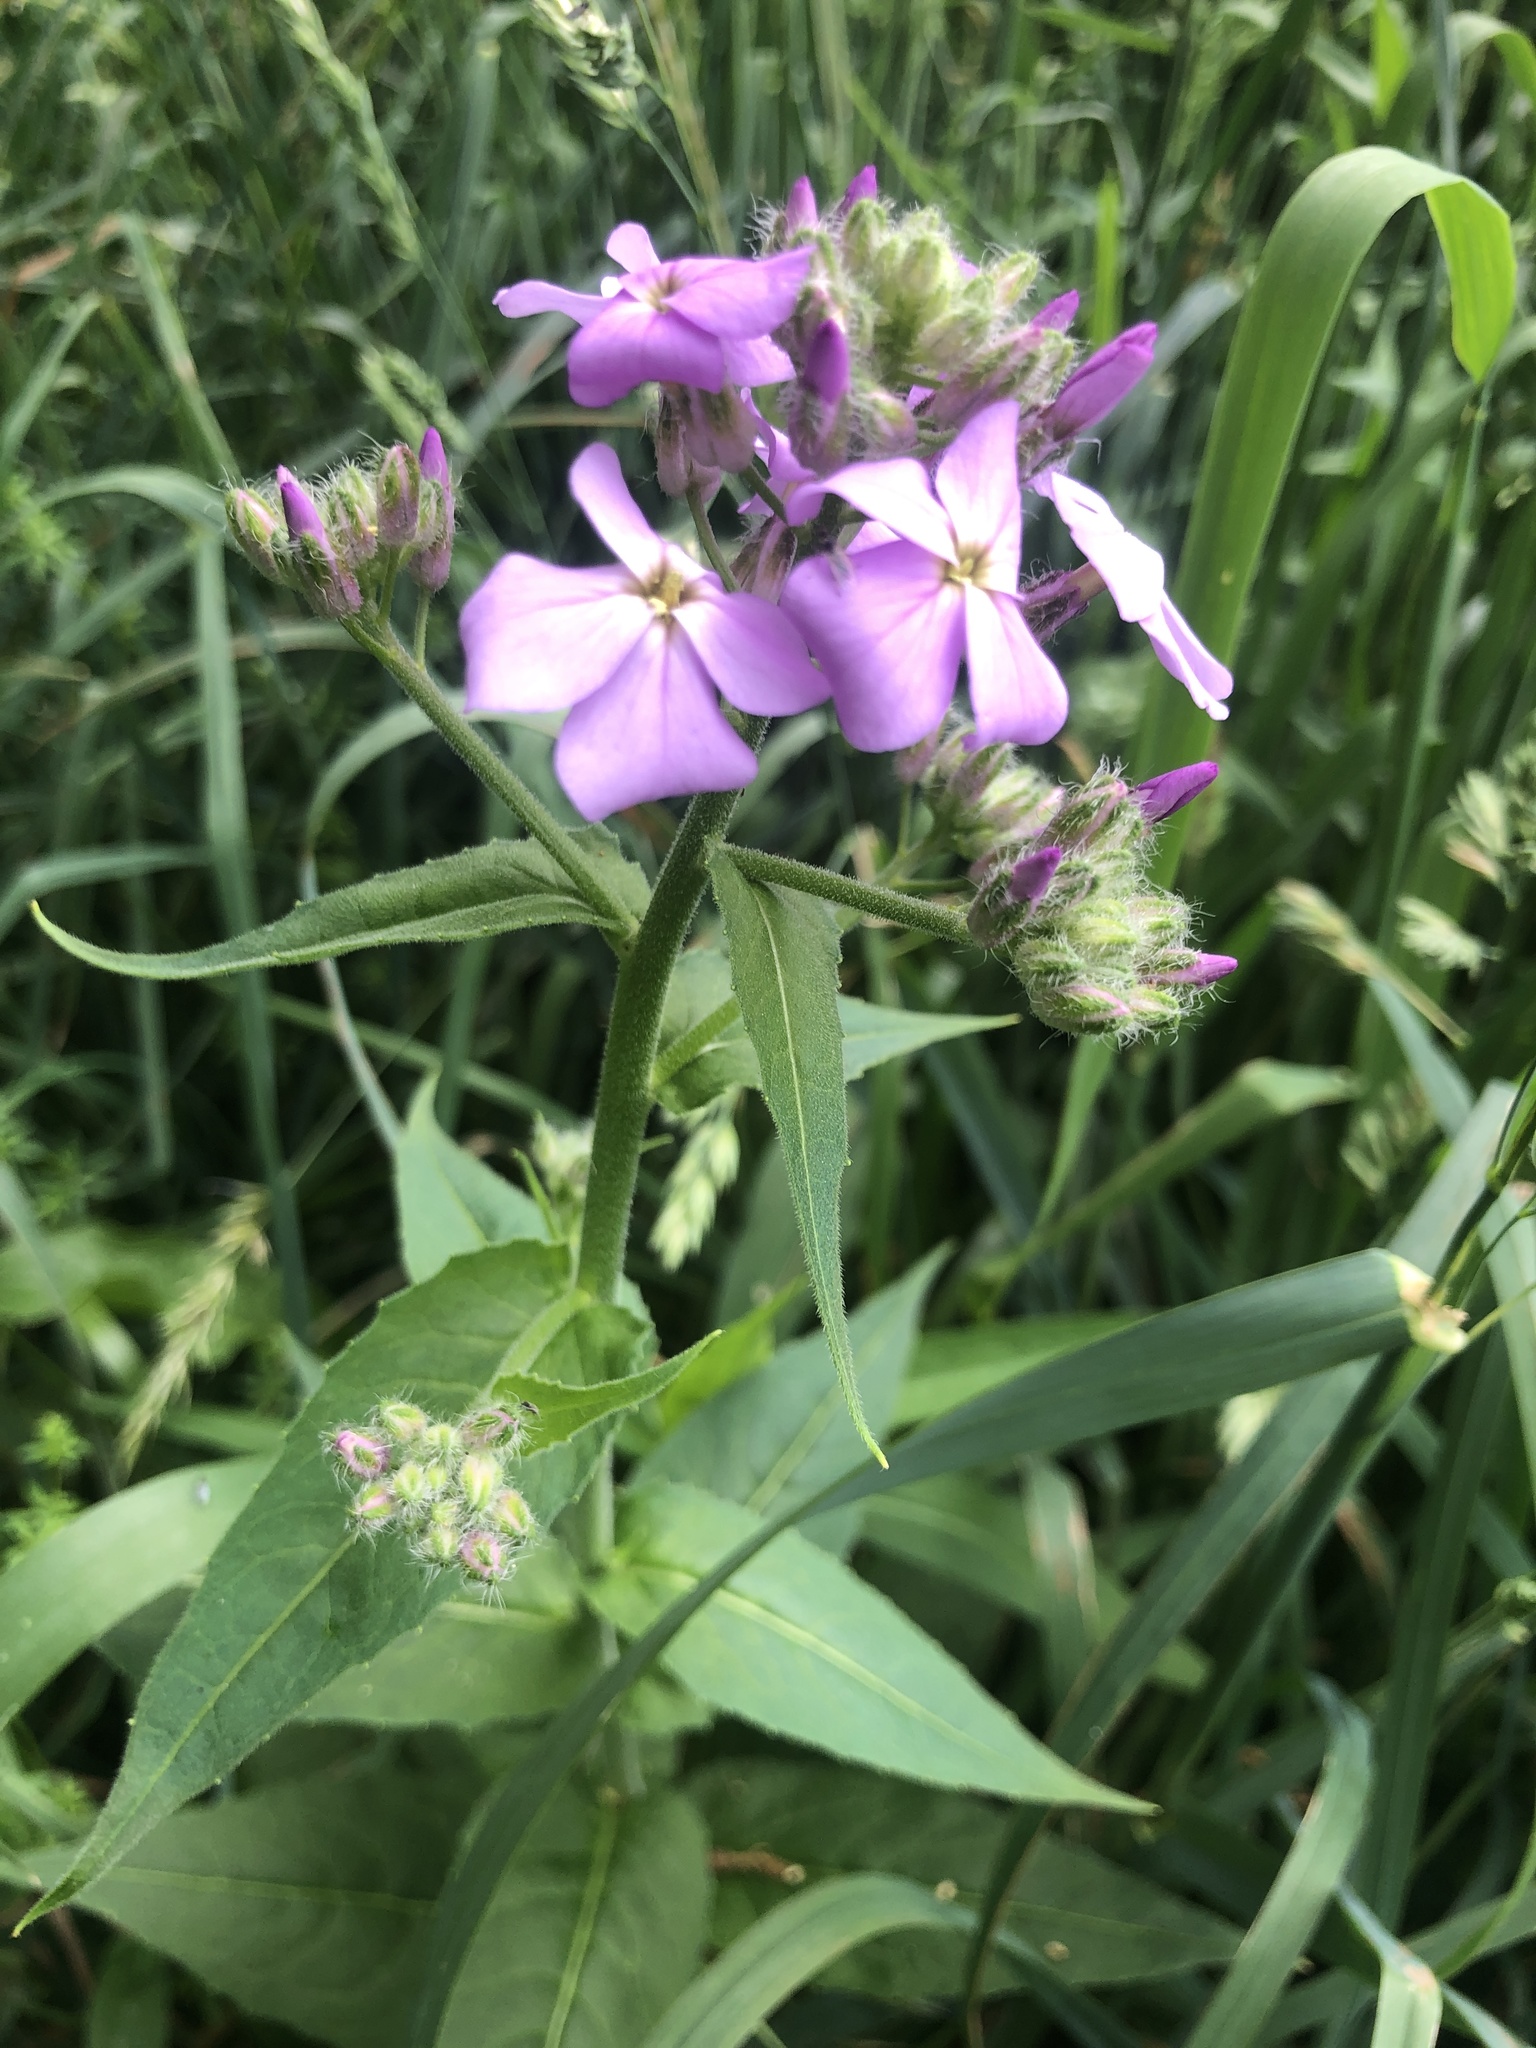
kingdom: Plantae
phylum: Tracheophyta
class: Magnoliopsida
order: Brassicales
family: Brassicaceae
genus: Hesperis
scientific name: Hesperis matronalis
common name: Dame's-violet
